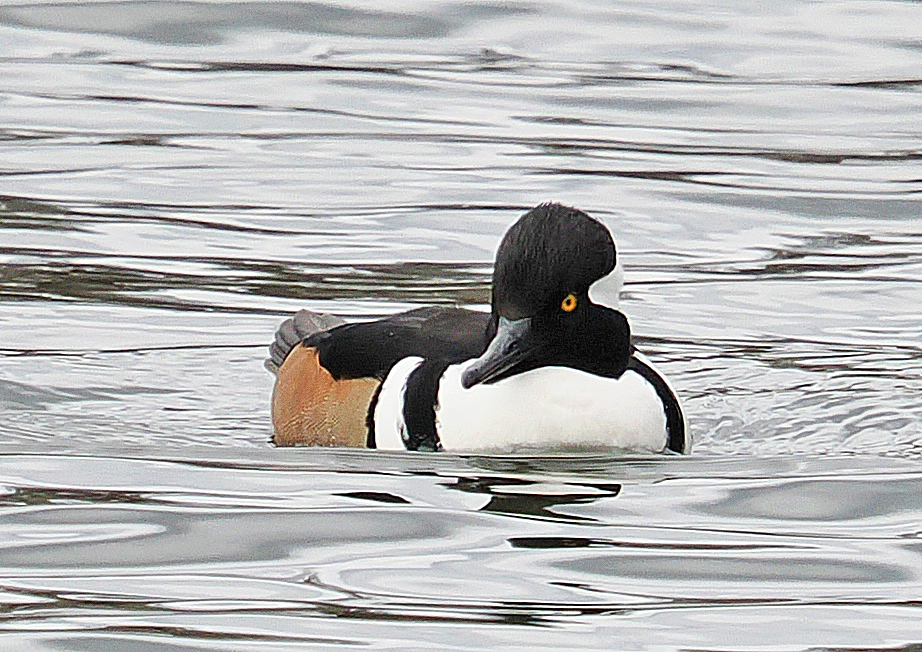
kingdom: Animalia
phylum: Chordata
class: Aves
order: Anseriformes
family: Anatidae
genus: Lophodytes
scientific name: Lophodytes cucullatus
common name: Hooded merganser
